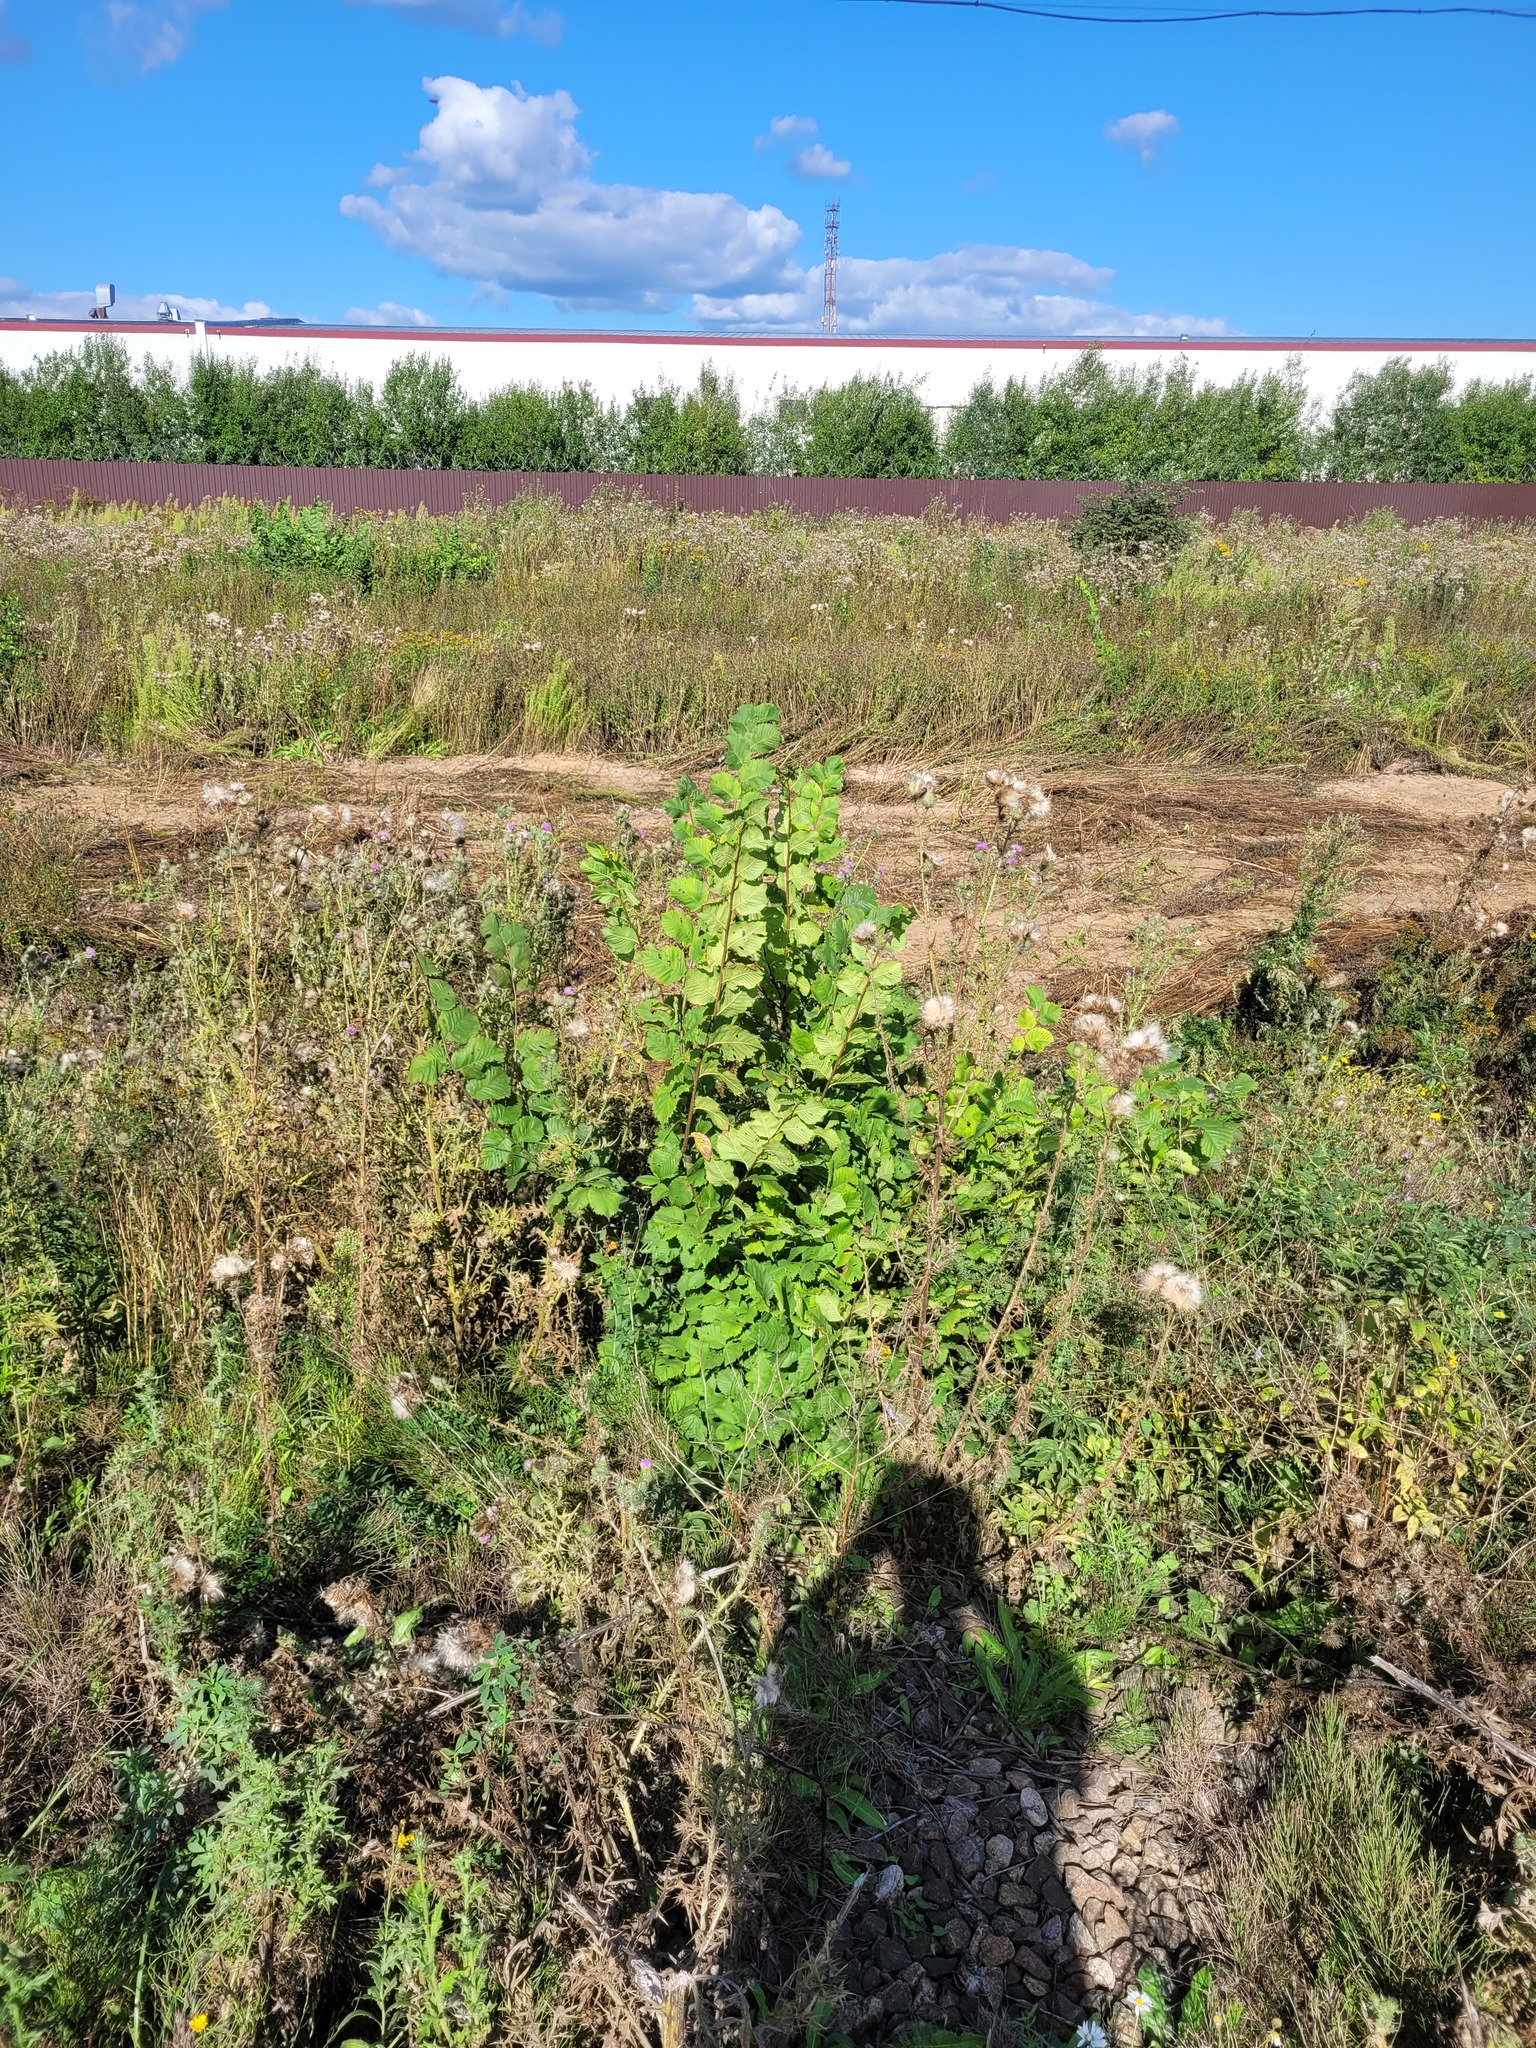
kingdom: Plantae
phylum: Tracheophyta
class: Magnoliopsida
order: Rosales
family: Ulmaceae
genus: Ulmus
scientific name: Ulmus laevis
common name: European white-elm
